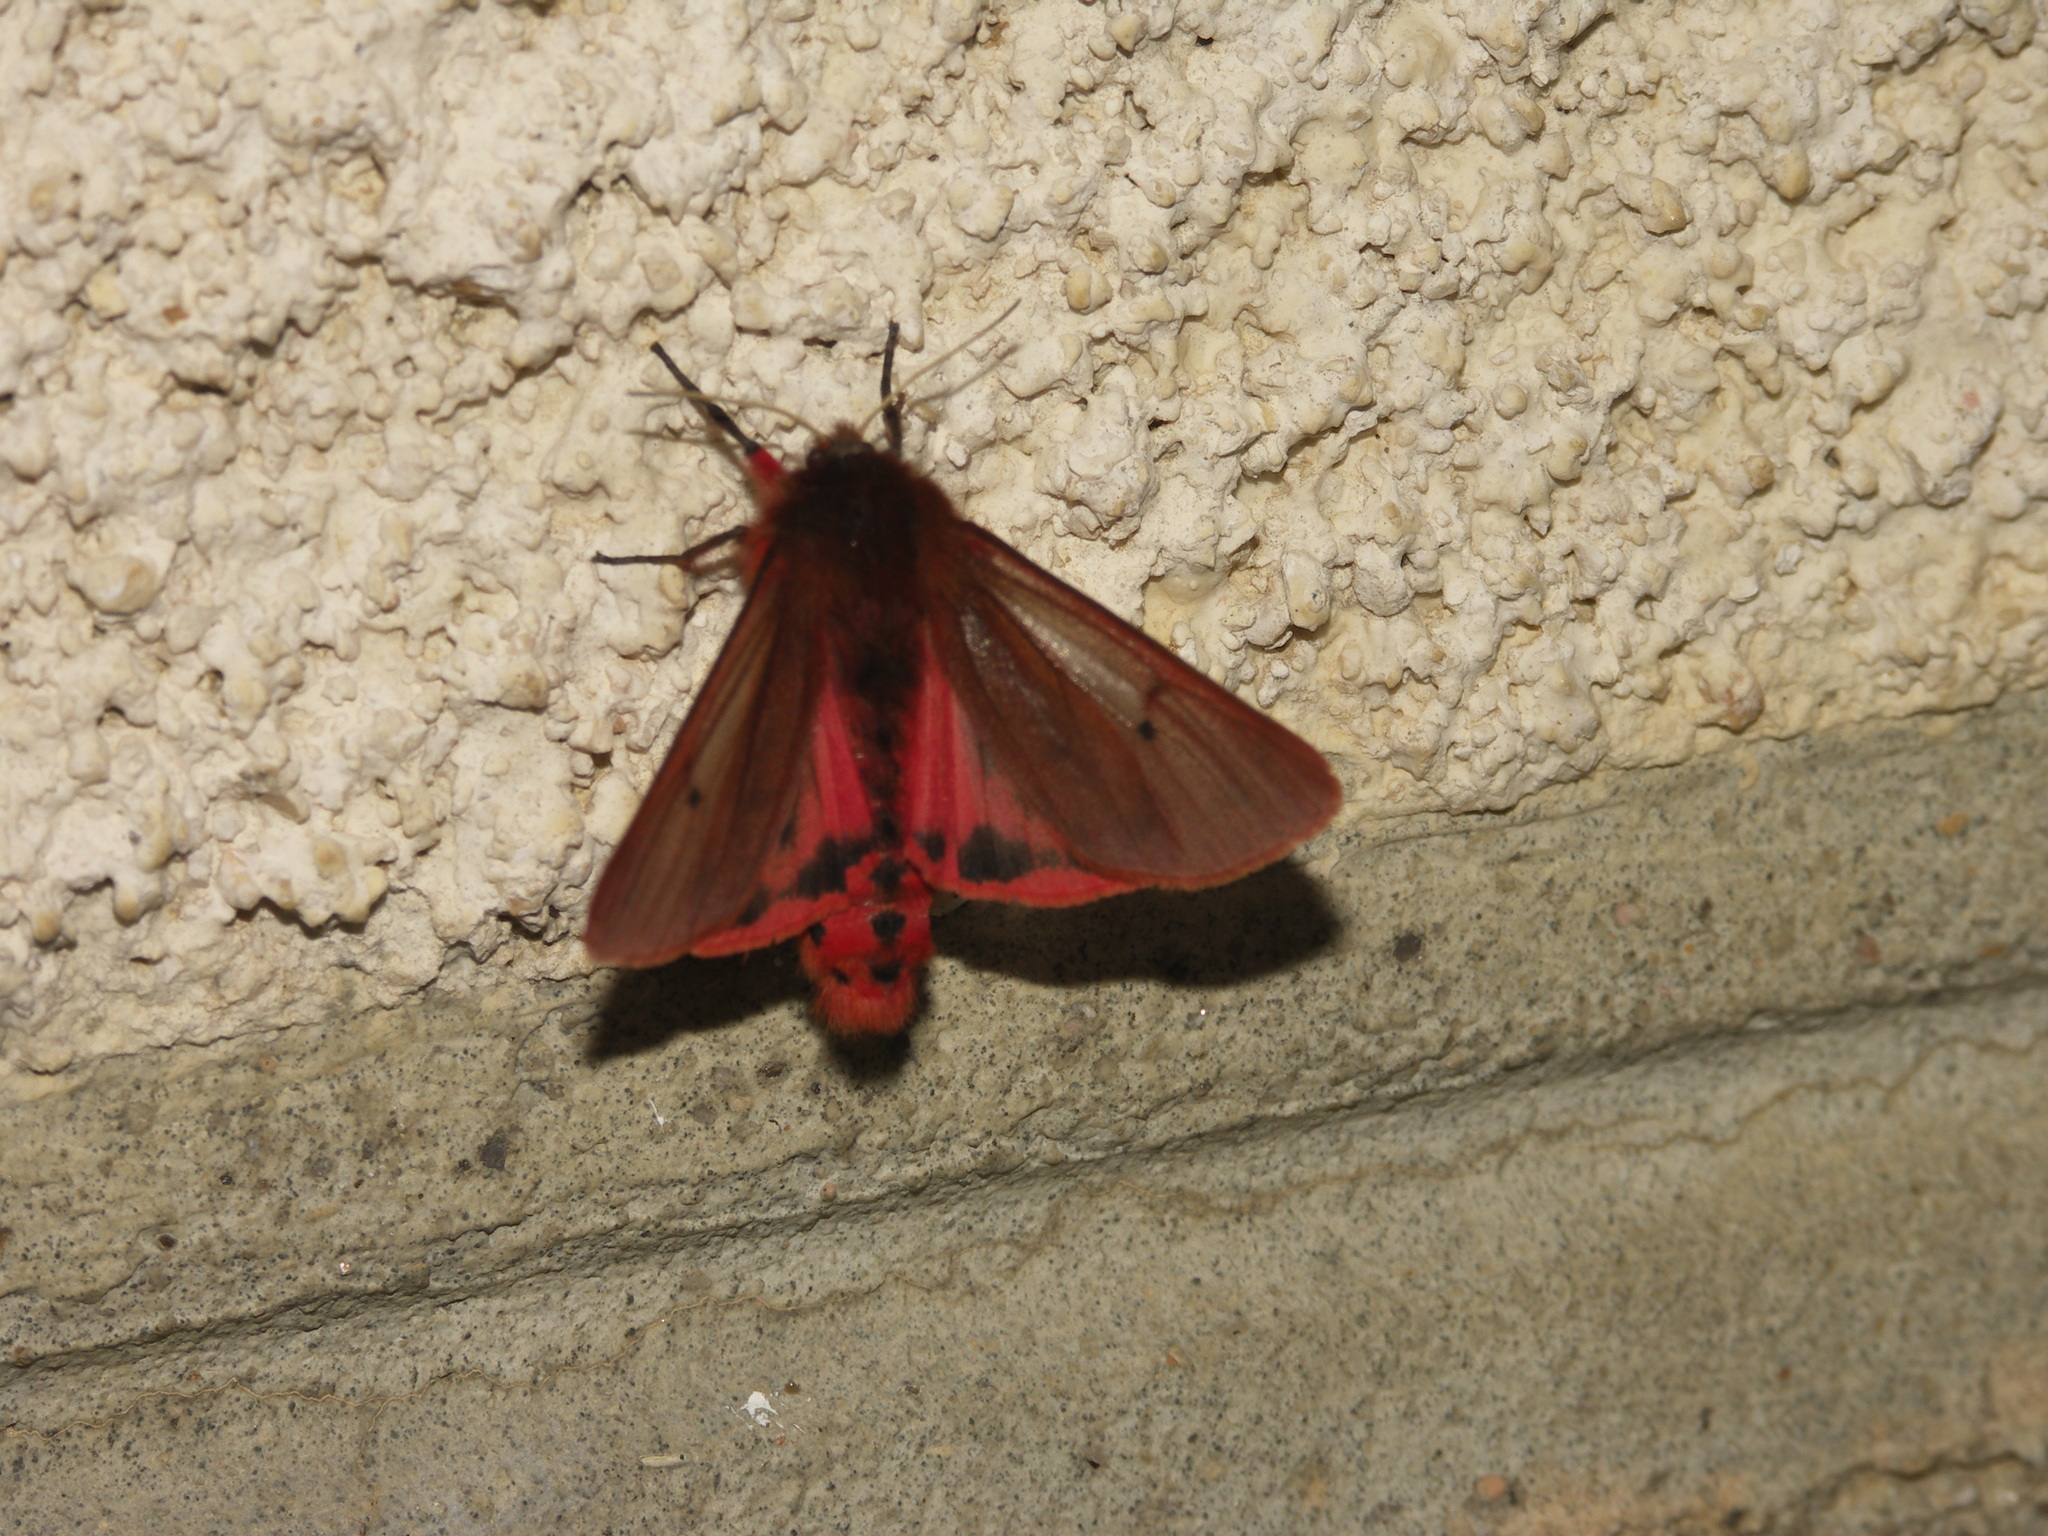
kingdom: Animalia
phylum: Arthropoda
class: Insecta
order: Lepidoptera
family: Erebidae
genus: Phragmatobia
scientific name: Phragmatobia fuliginosa
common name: Ruby tiger
